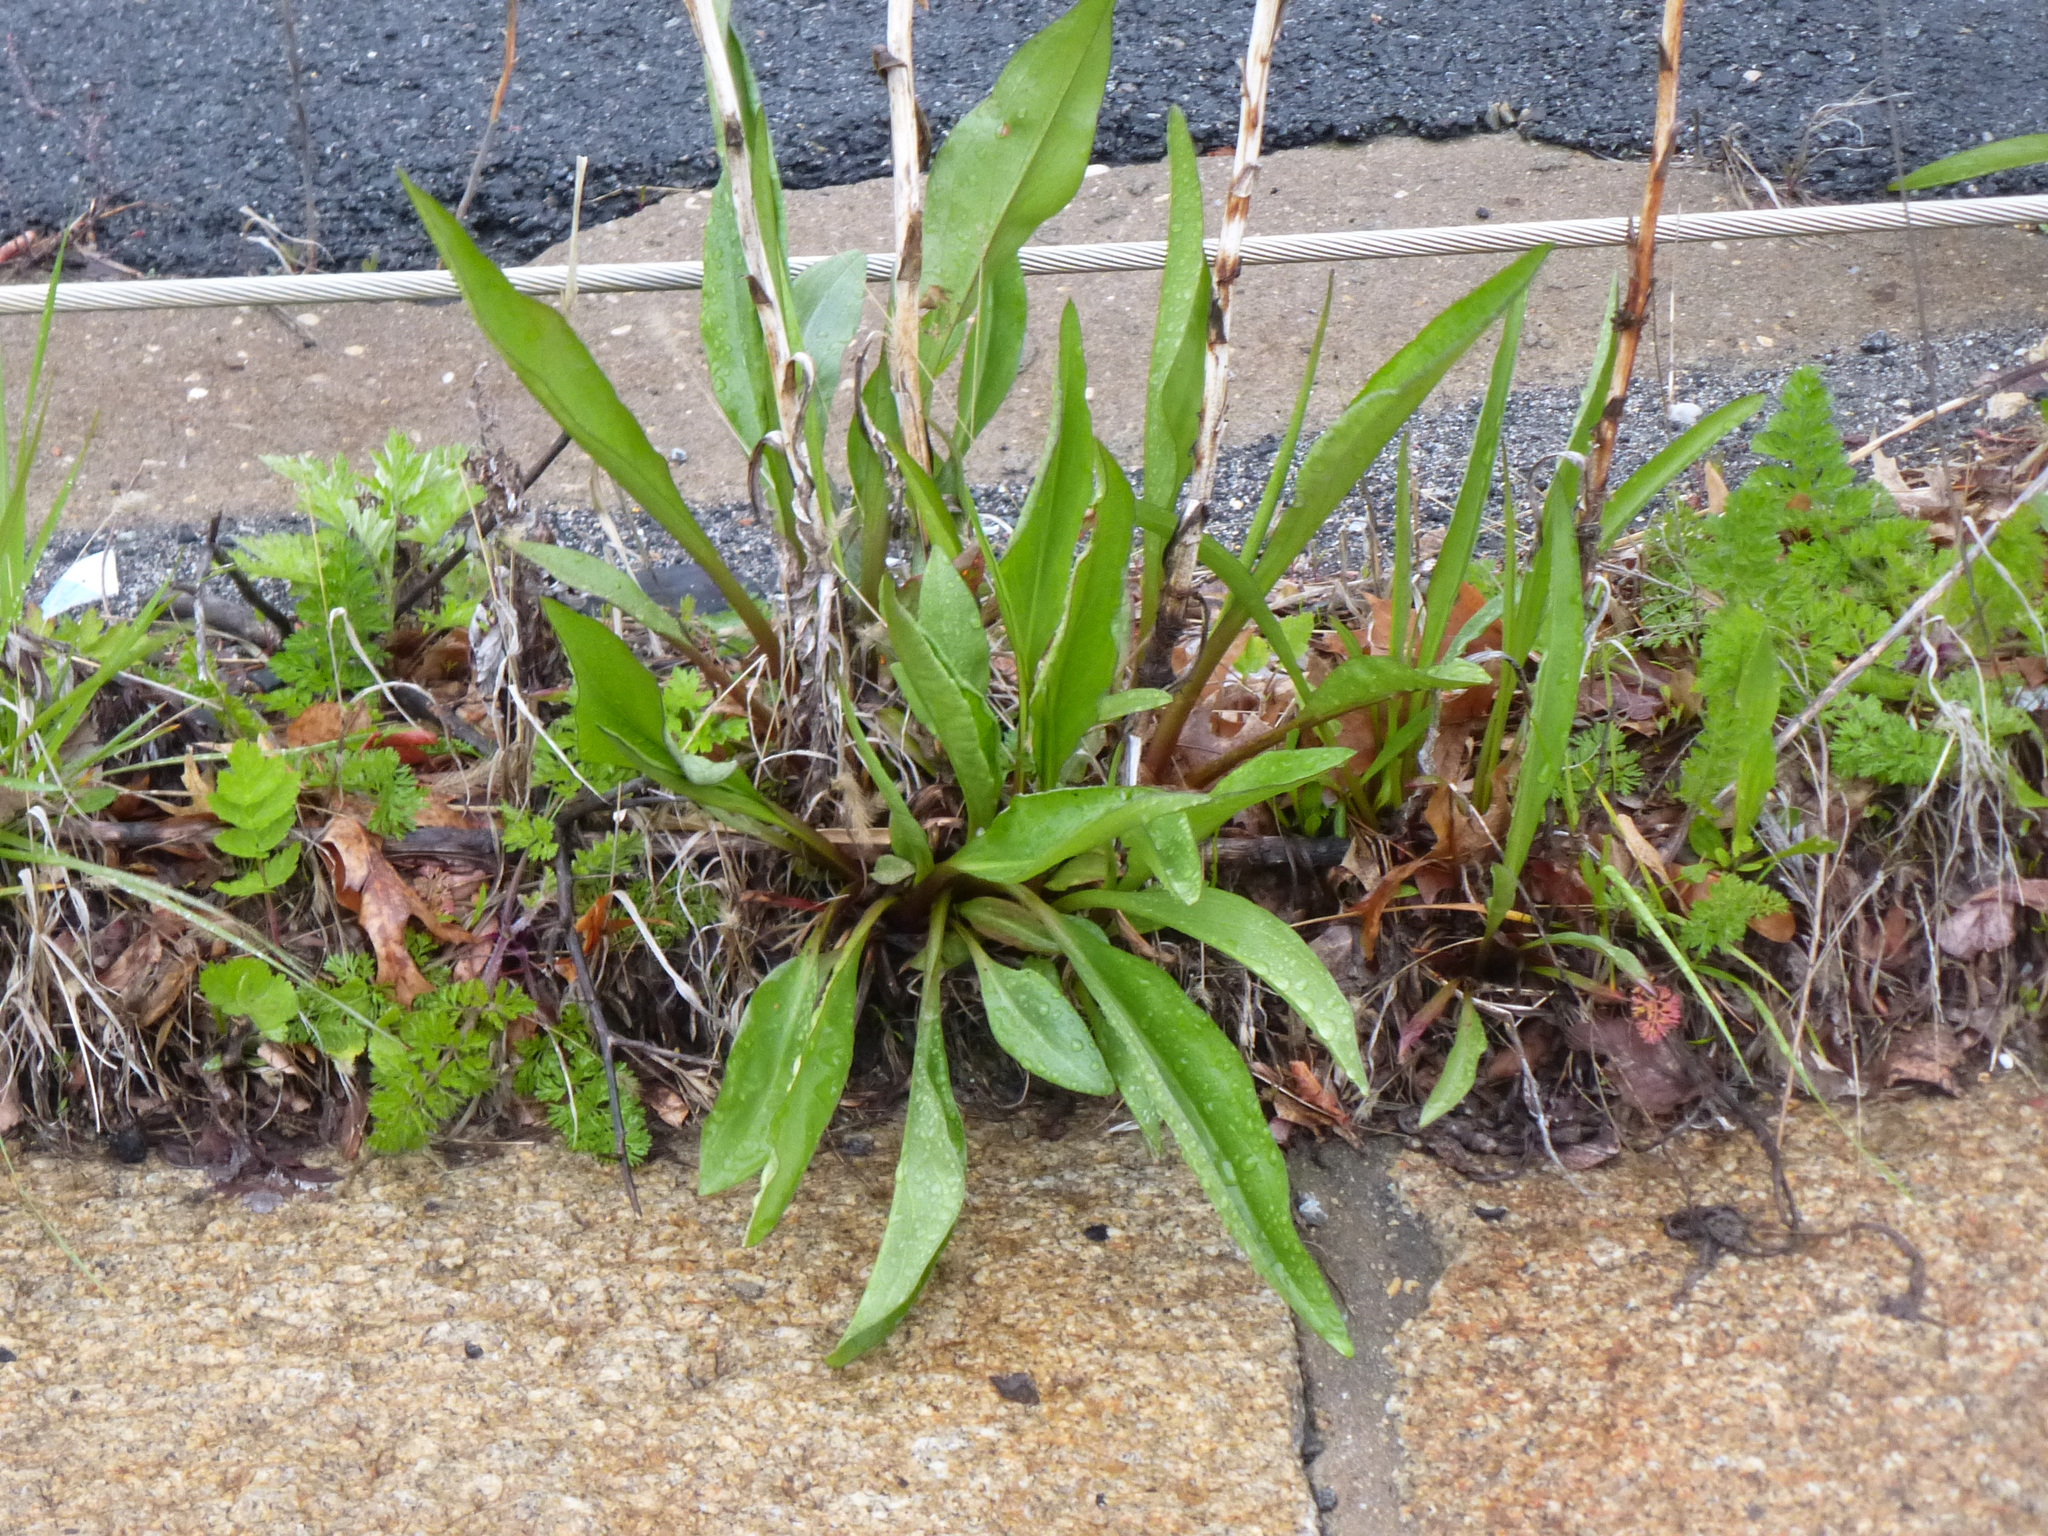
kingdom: Plantae
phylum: Tracheophyta
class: Magnoliopsida
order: Asterales
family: Asteraceae
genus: Solidago
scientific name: Solidago sempervirens
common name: Salt-marsh goldenrod
